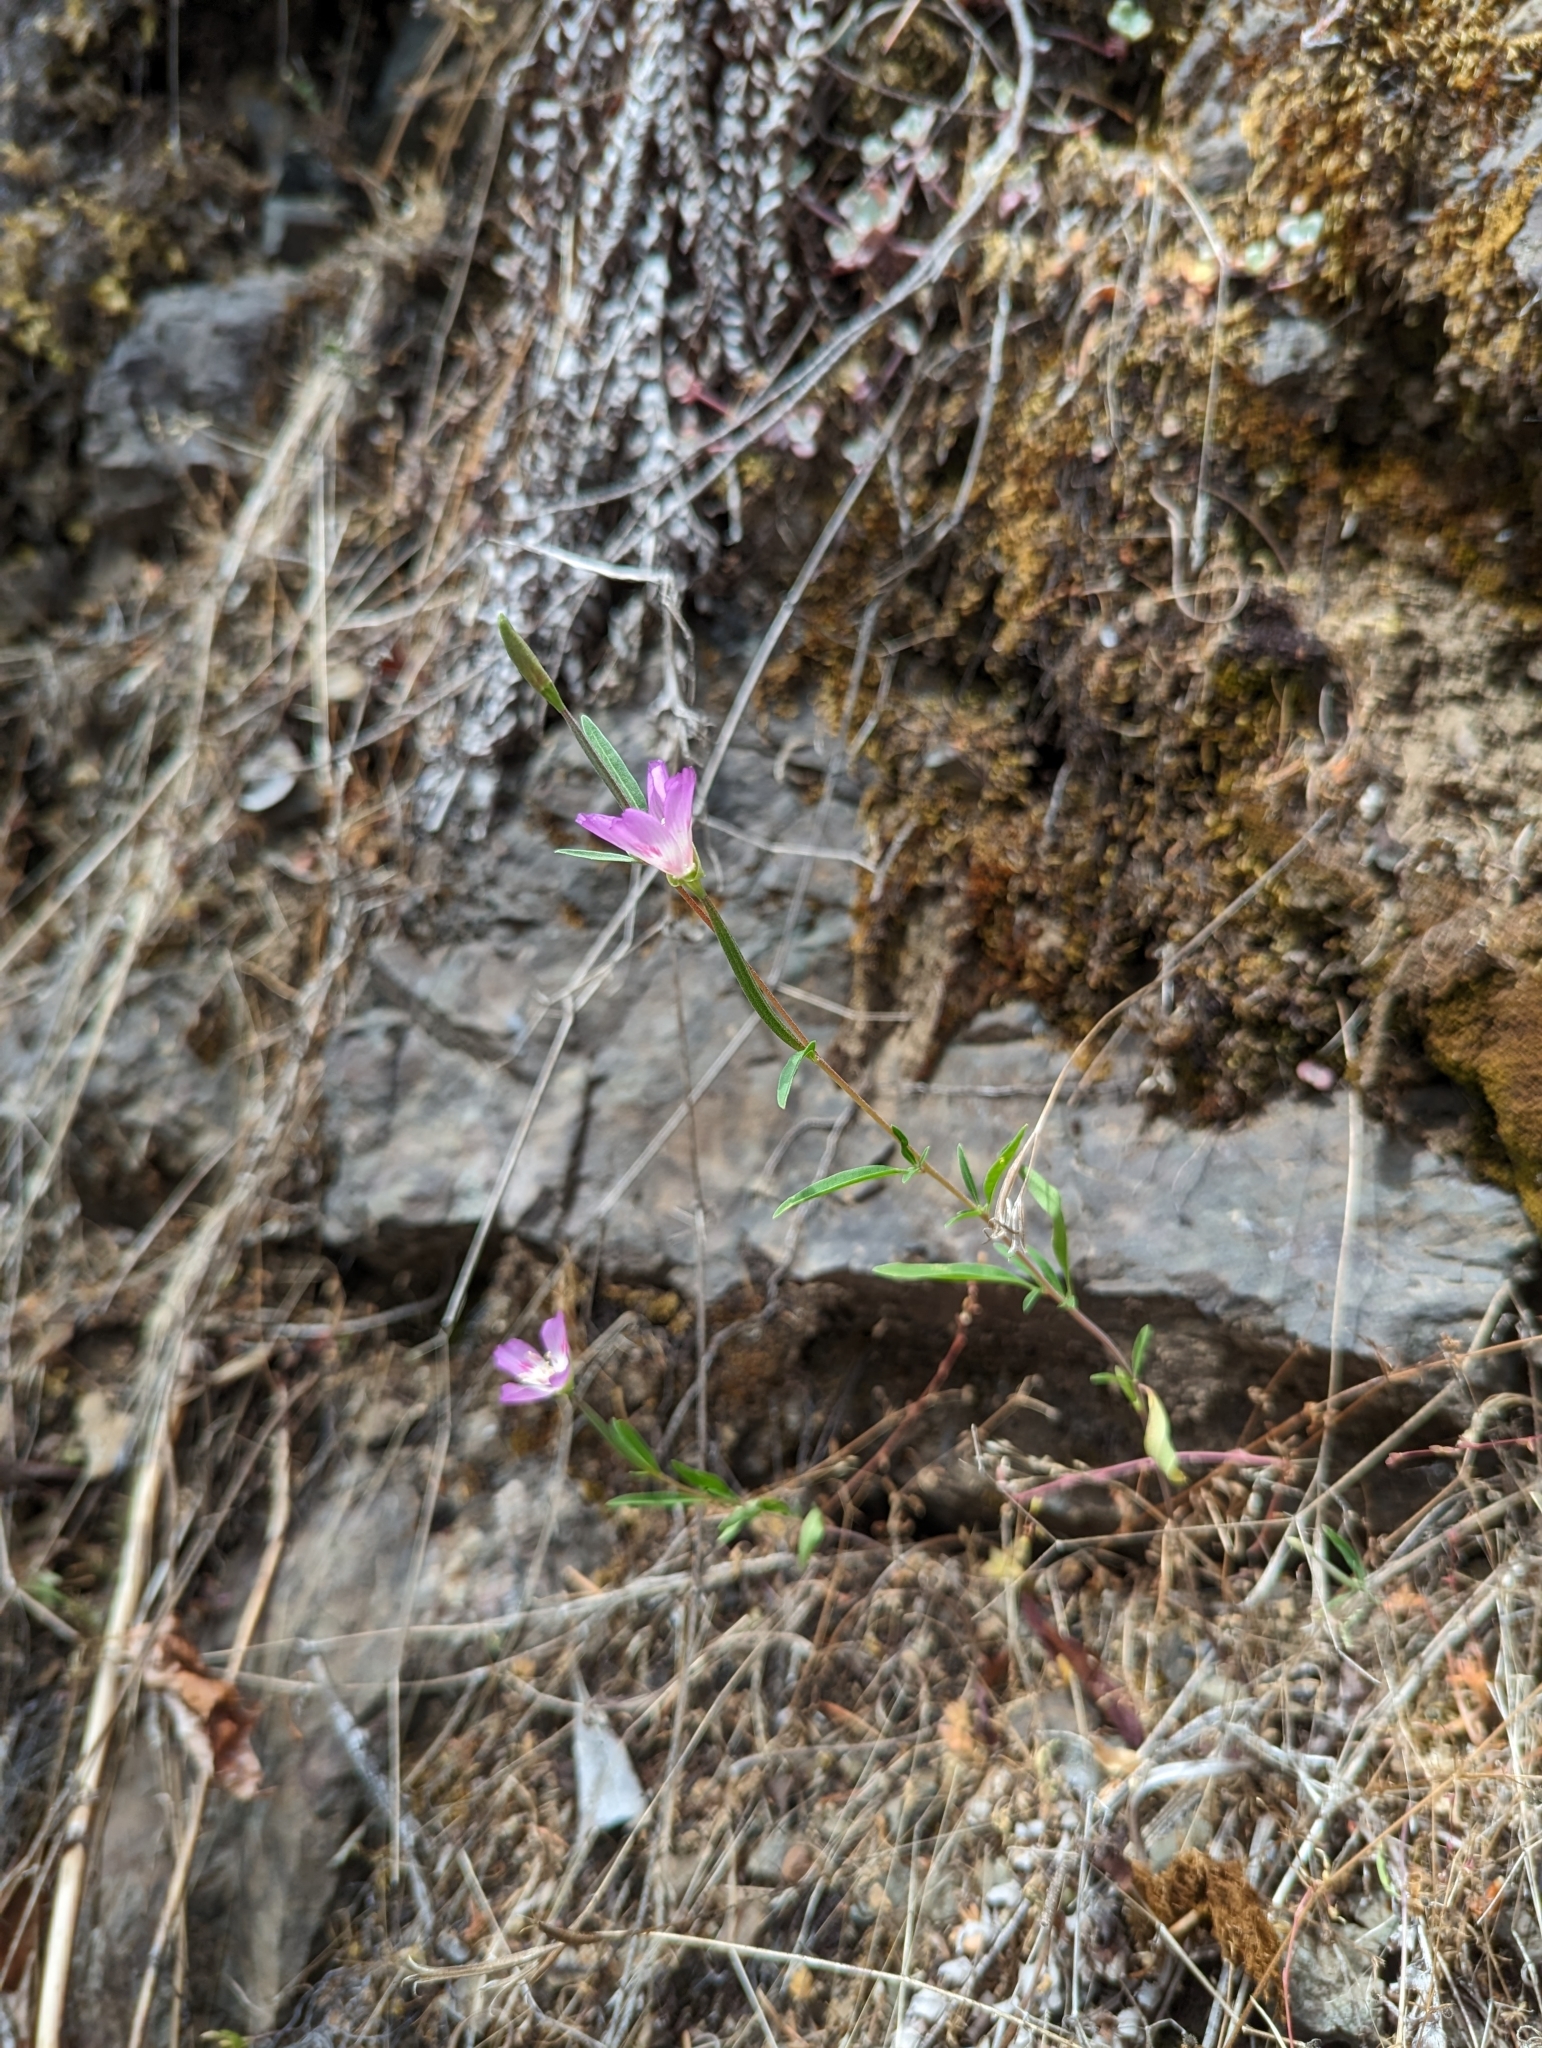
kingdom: Plantae
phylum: Tracheophyta
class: Magnoliopsida
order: Myrtales
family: Onagraceae
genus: Clarkia
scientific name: Clarkia amoena
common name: Godetia
